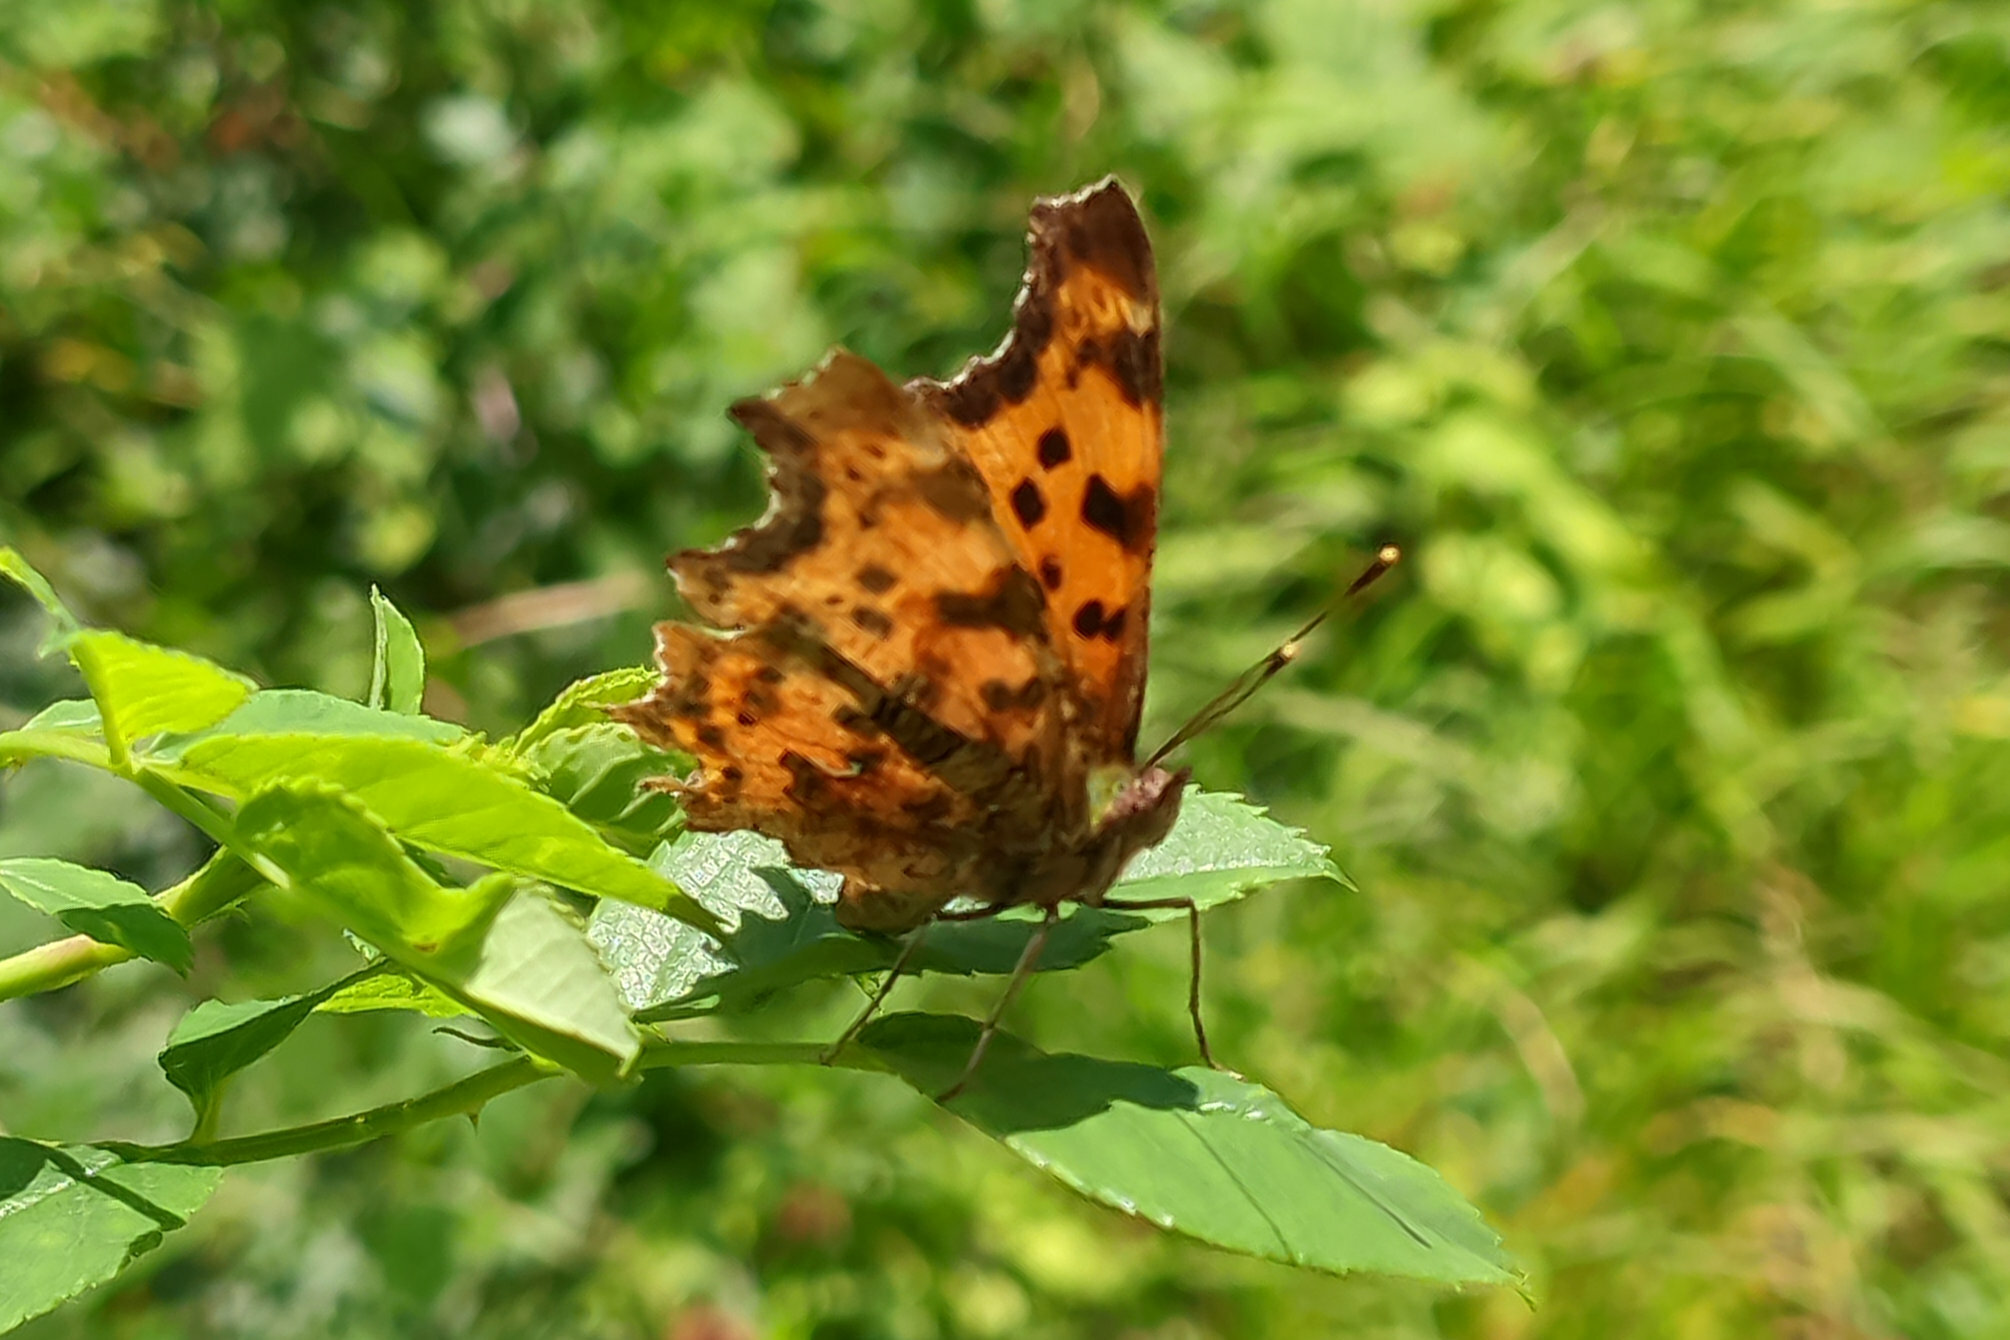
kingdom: Animalia
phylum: Arthropoda
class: Insecta
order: Lepidoptera
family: Nymphalidae
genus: Polygonia
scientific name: Polygonia c-album
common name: Comma
